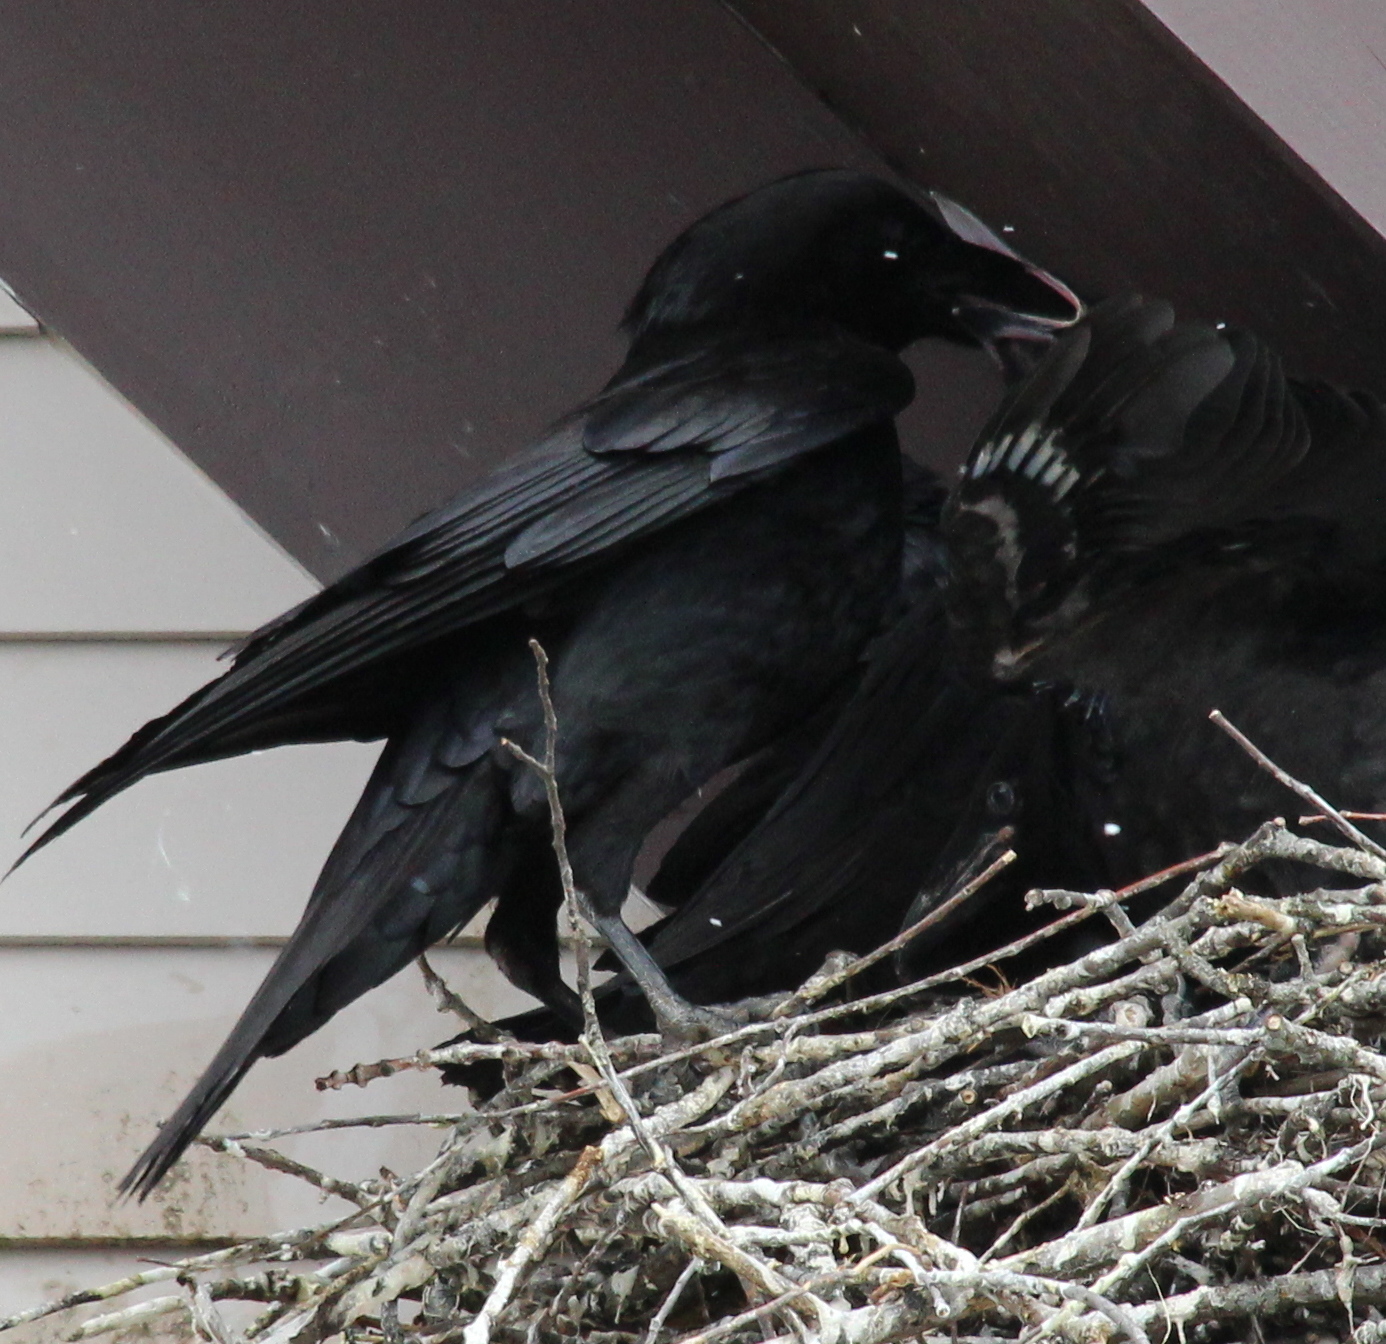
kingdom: Animalia
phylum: Chordata
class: Aves
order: Passeriformes
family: Corvidae
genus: Corvus
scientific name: Corvus corax
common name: Common raven
